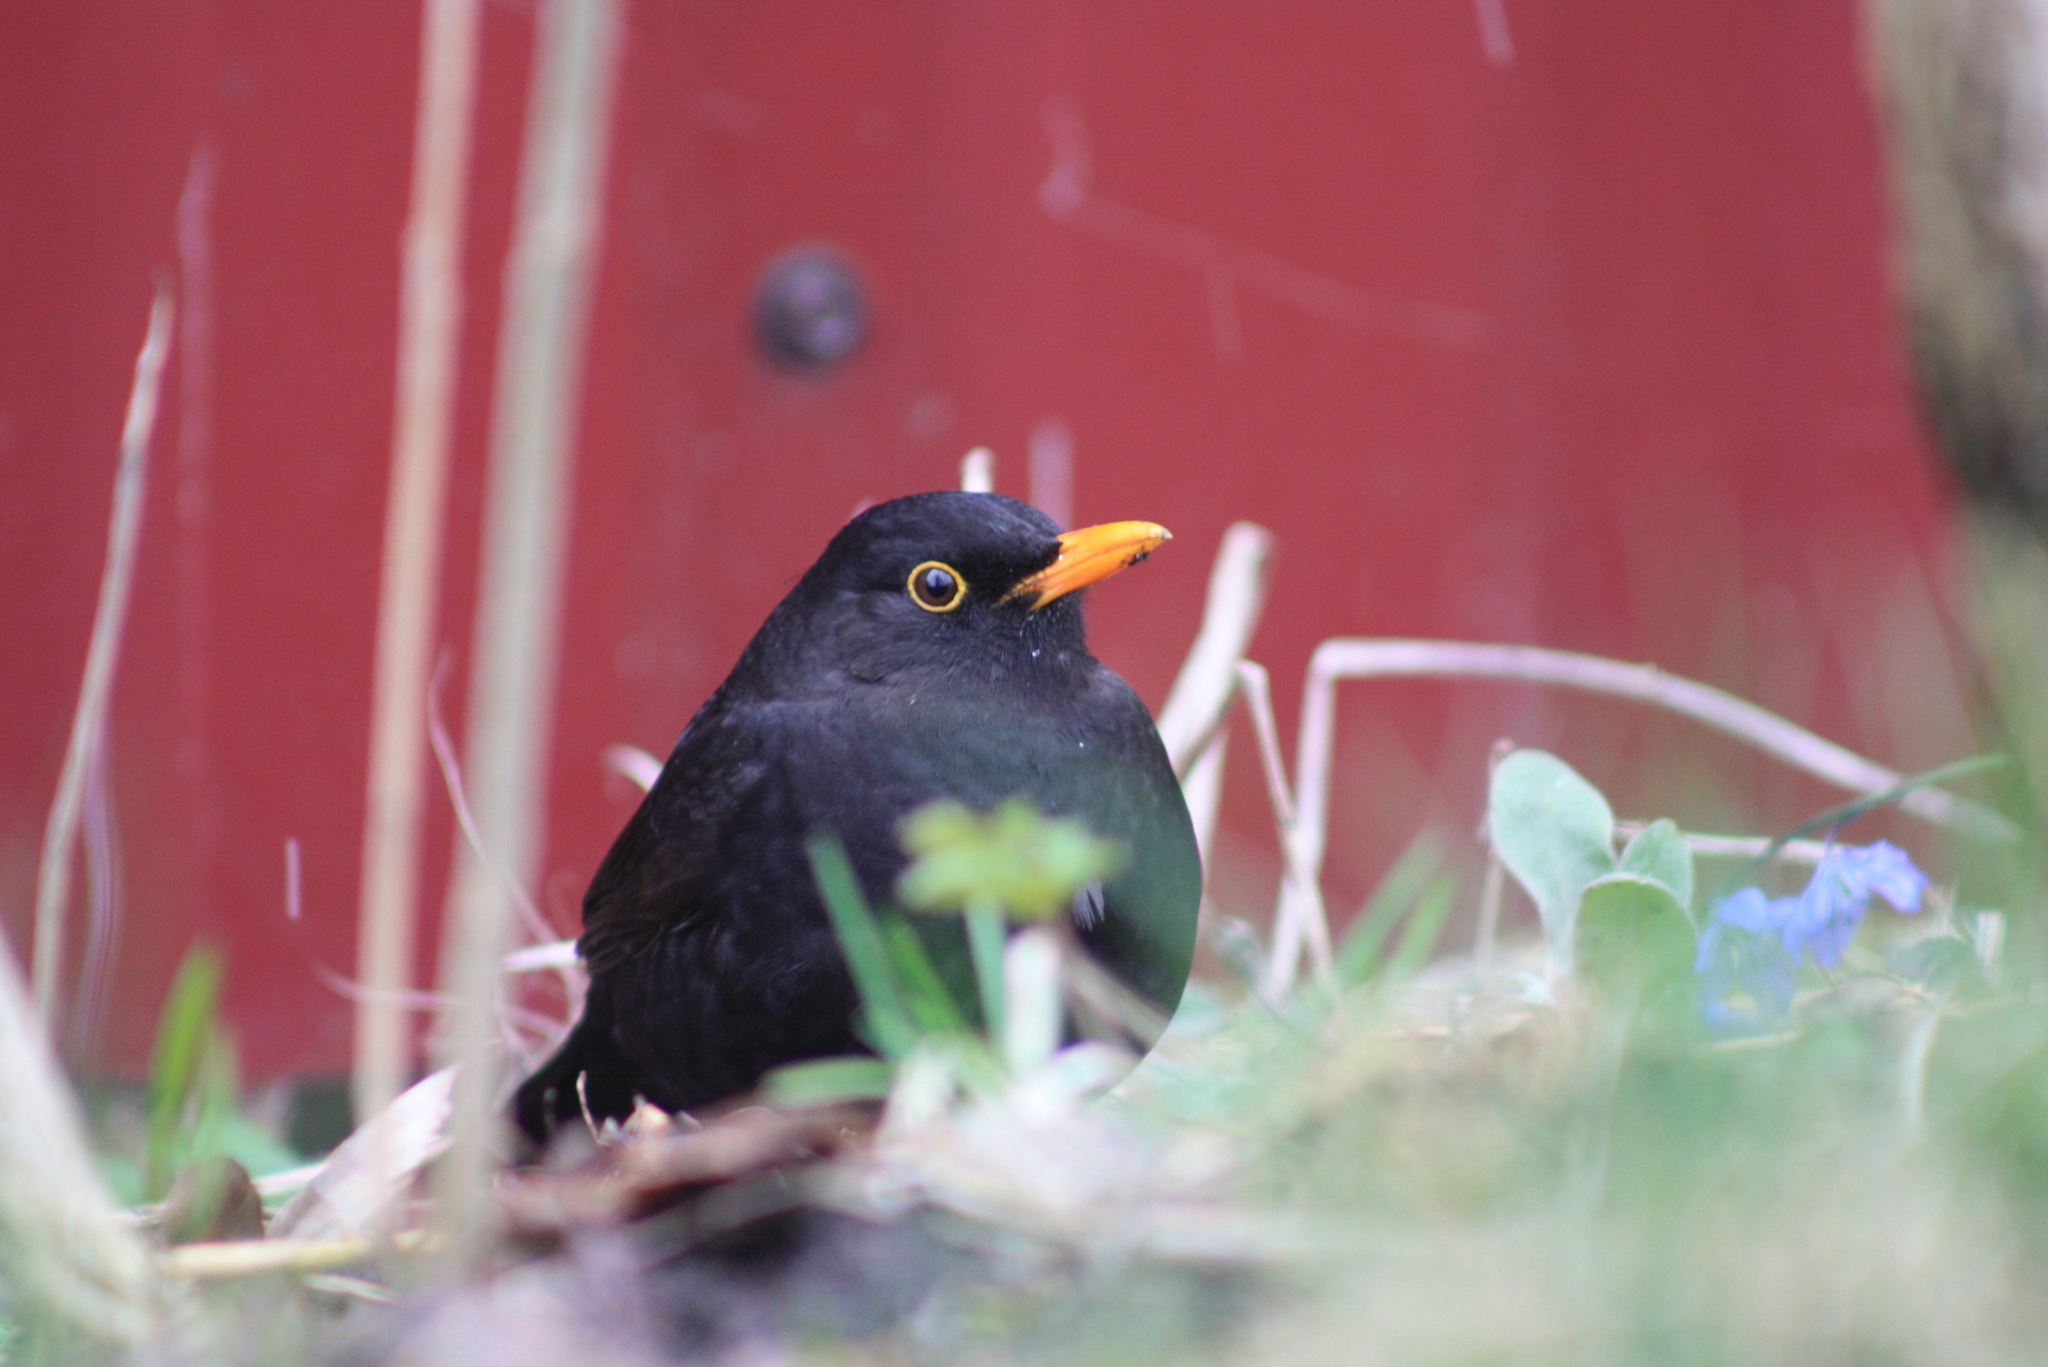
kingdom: Animalia
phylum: Chordata
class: Aves
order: Passeriformes
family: Turdidae
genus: Turdus
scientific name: Turdus merula
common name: Common blackbird
